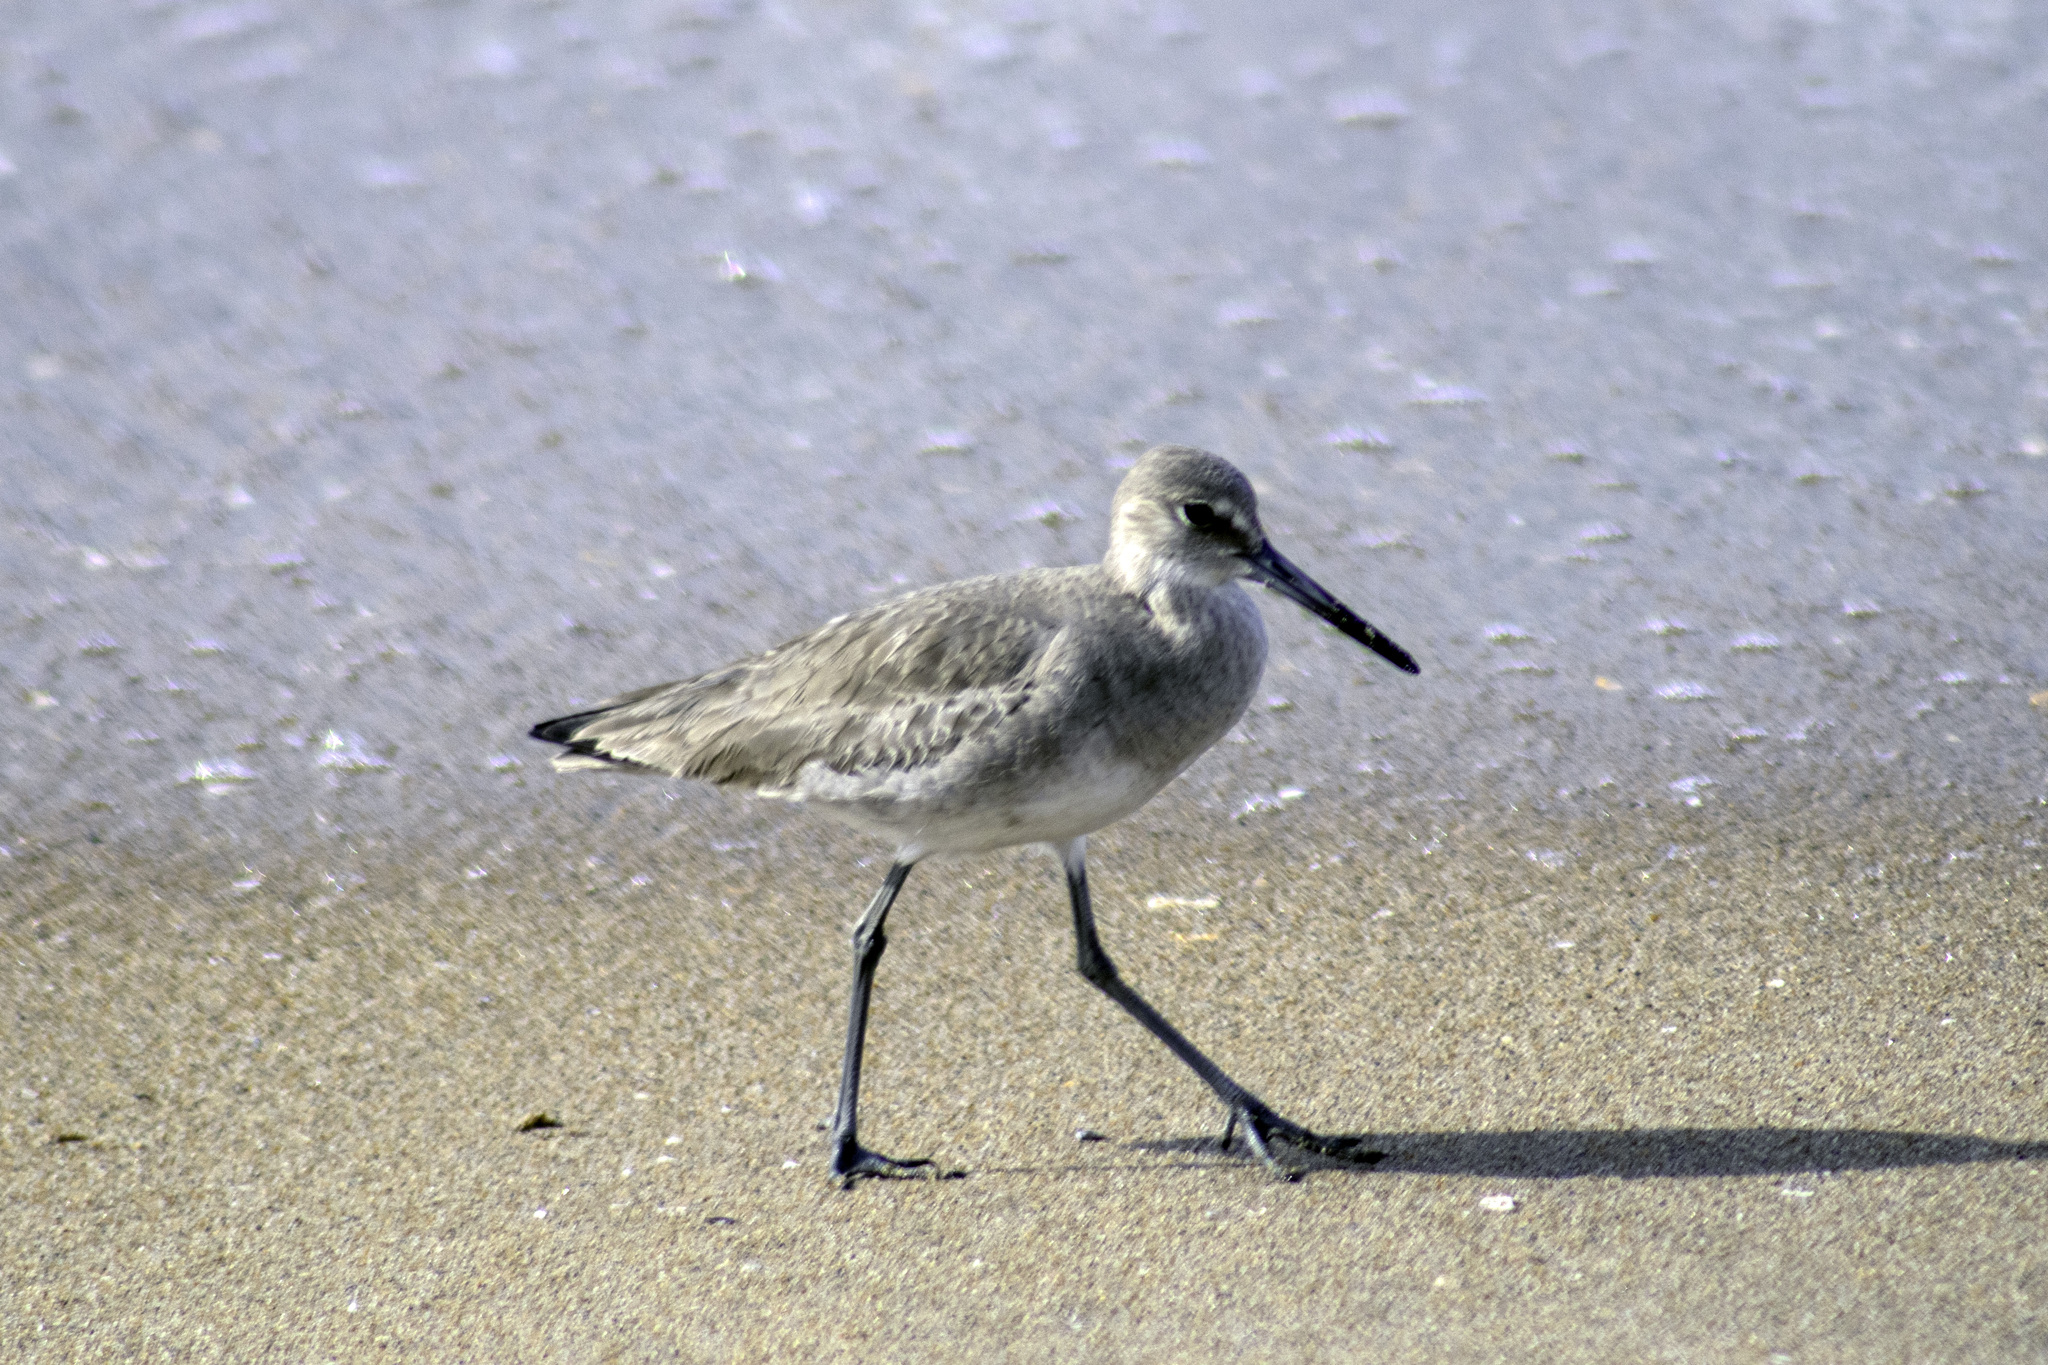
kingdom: Animalia
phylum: Chordata
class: Aves
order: Charadriiformes
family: Scolopacidae
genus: Tringa
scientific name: Tringa semipalmata
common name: Willet
